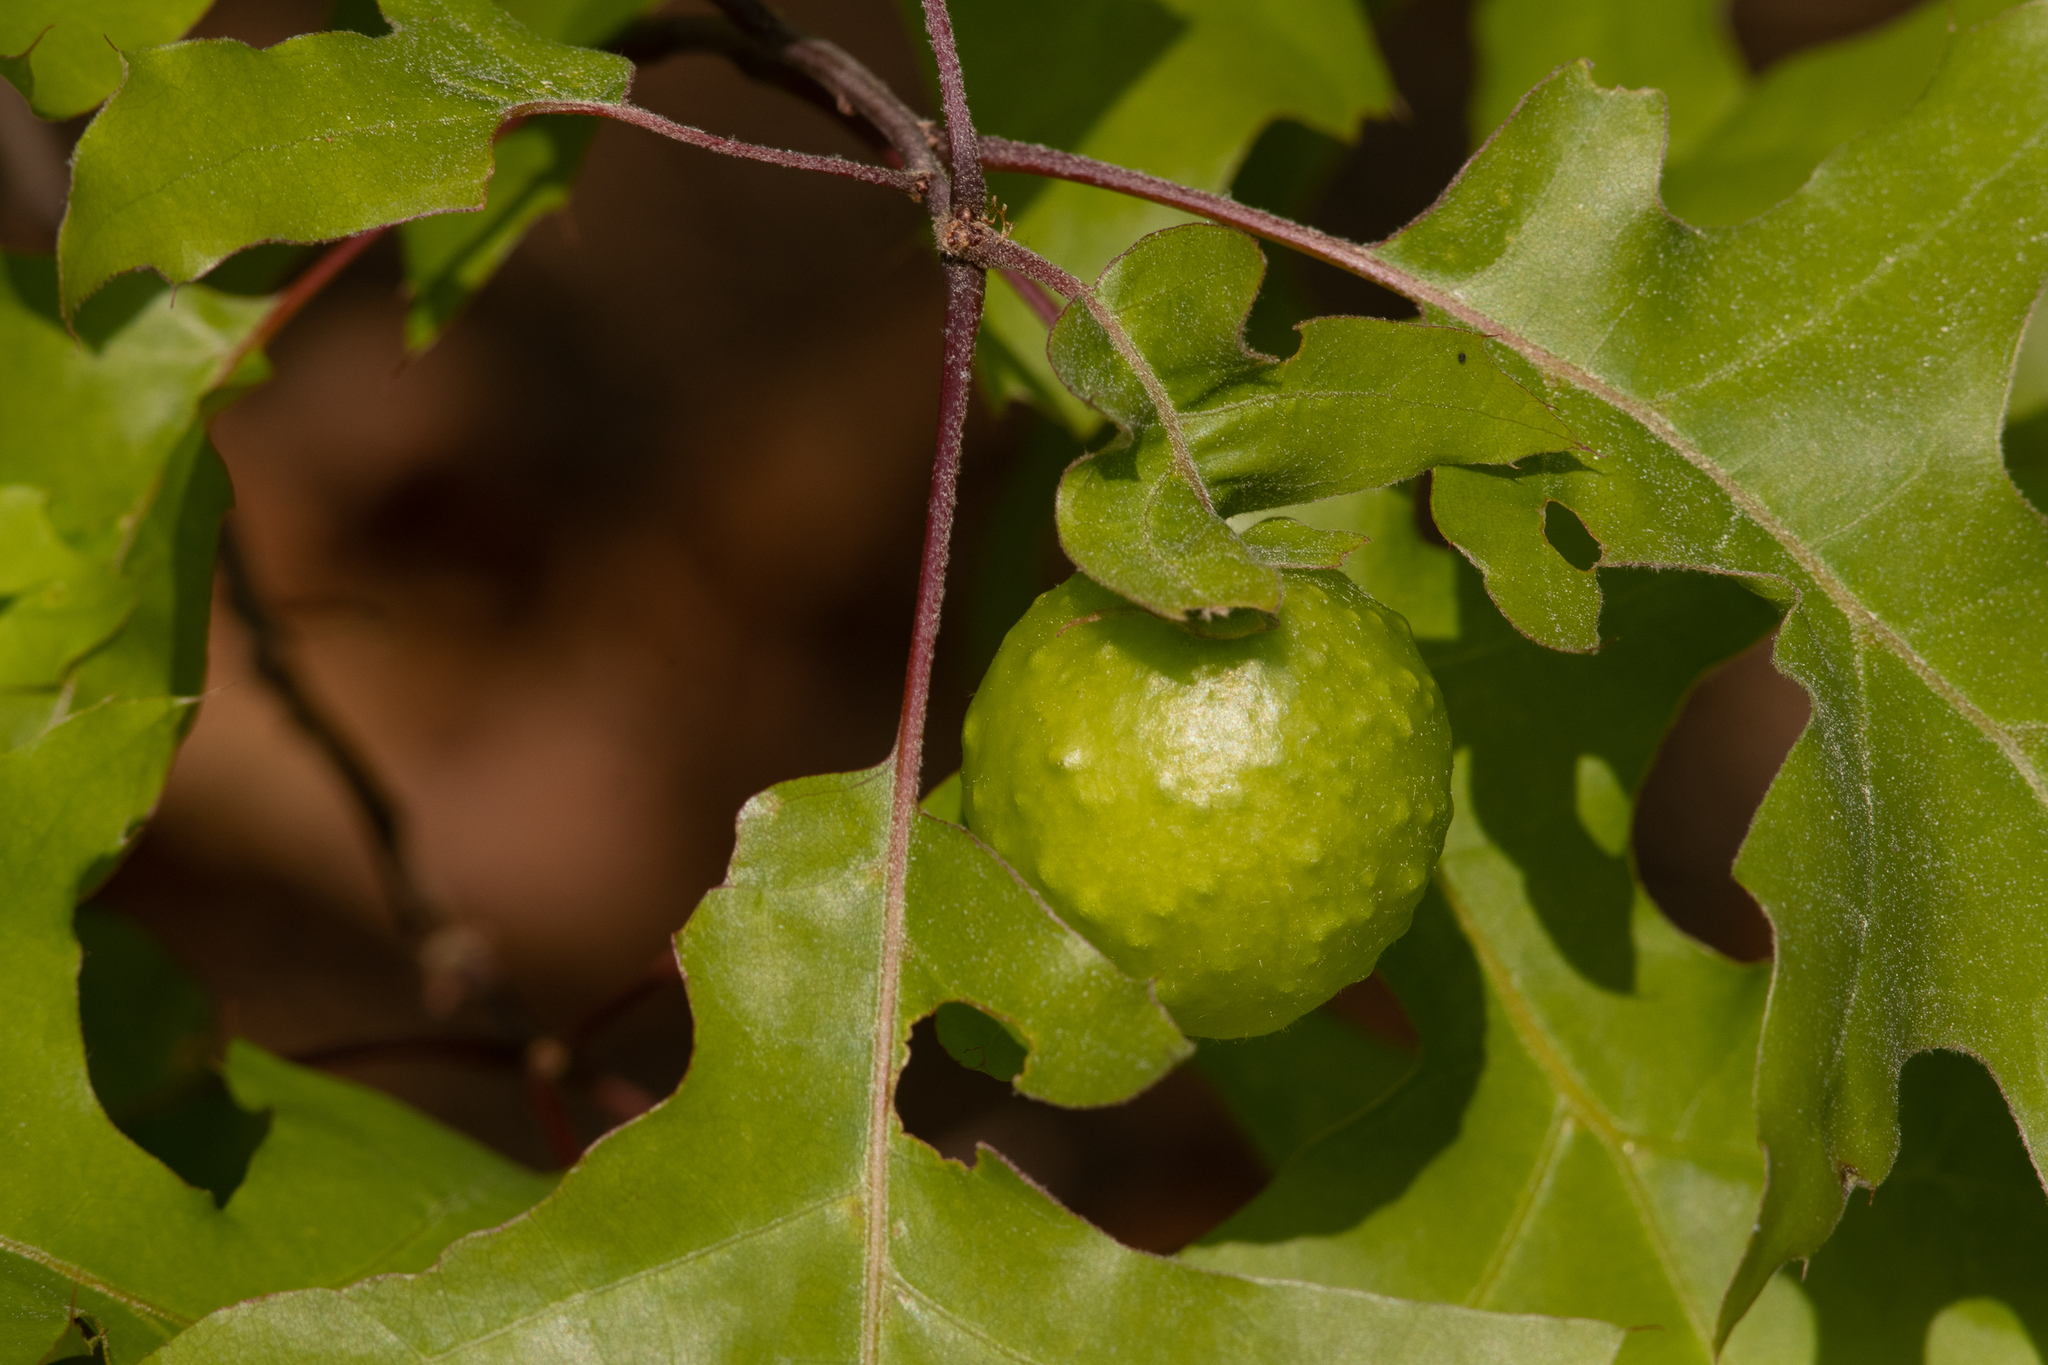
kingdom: Animalia
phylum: Arthropoda
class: Insecta
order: Hymenoptera
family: Cynipidae
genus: Amphibolips
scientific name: Amphibolips
